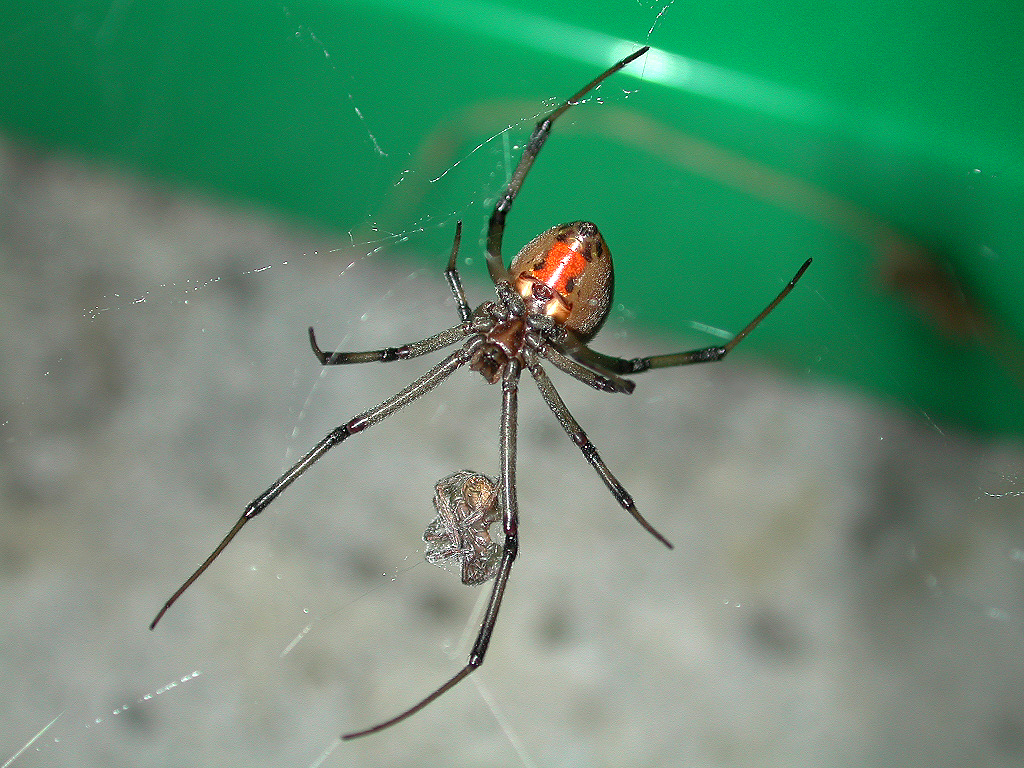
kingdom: Animalia
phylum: Arthropoda
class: Arachnida
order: Araneae
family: Theridiidae
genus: Latrodectus
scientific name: Latrodectus geometricus
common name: Brown widow spider
